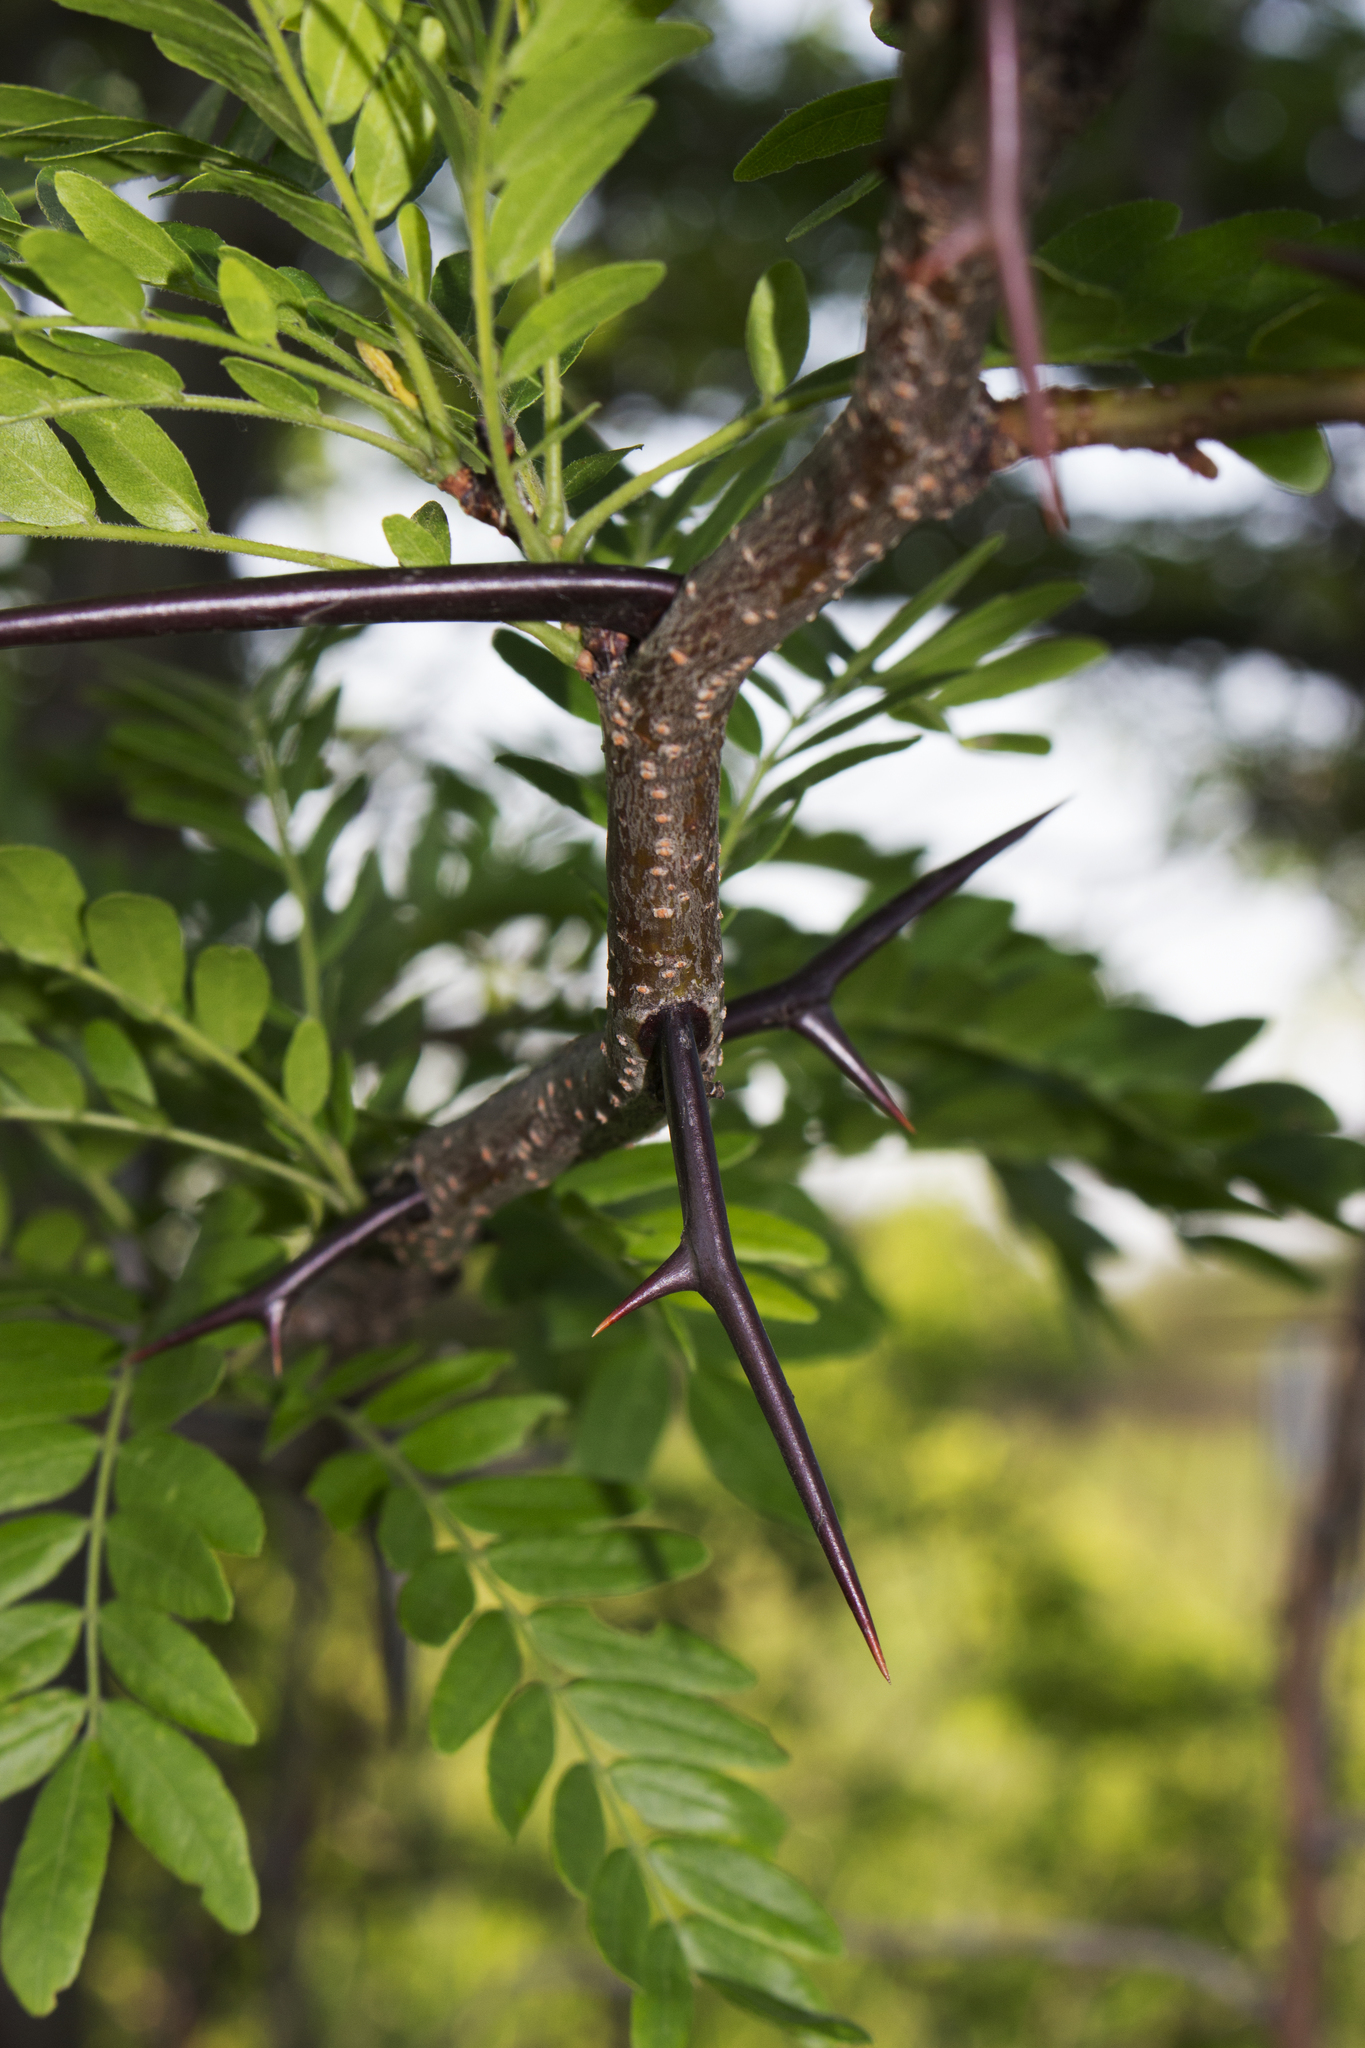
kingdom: Plantae
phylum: Tracheophyta
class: Magnoliopsida
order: Fabales
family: Fabaceae
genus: Gleditsia
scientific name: Gleditsia triacanthos
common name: Common honeylocust
